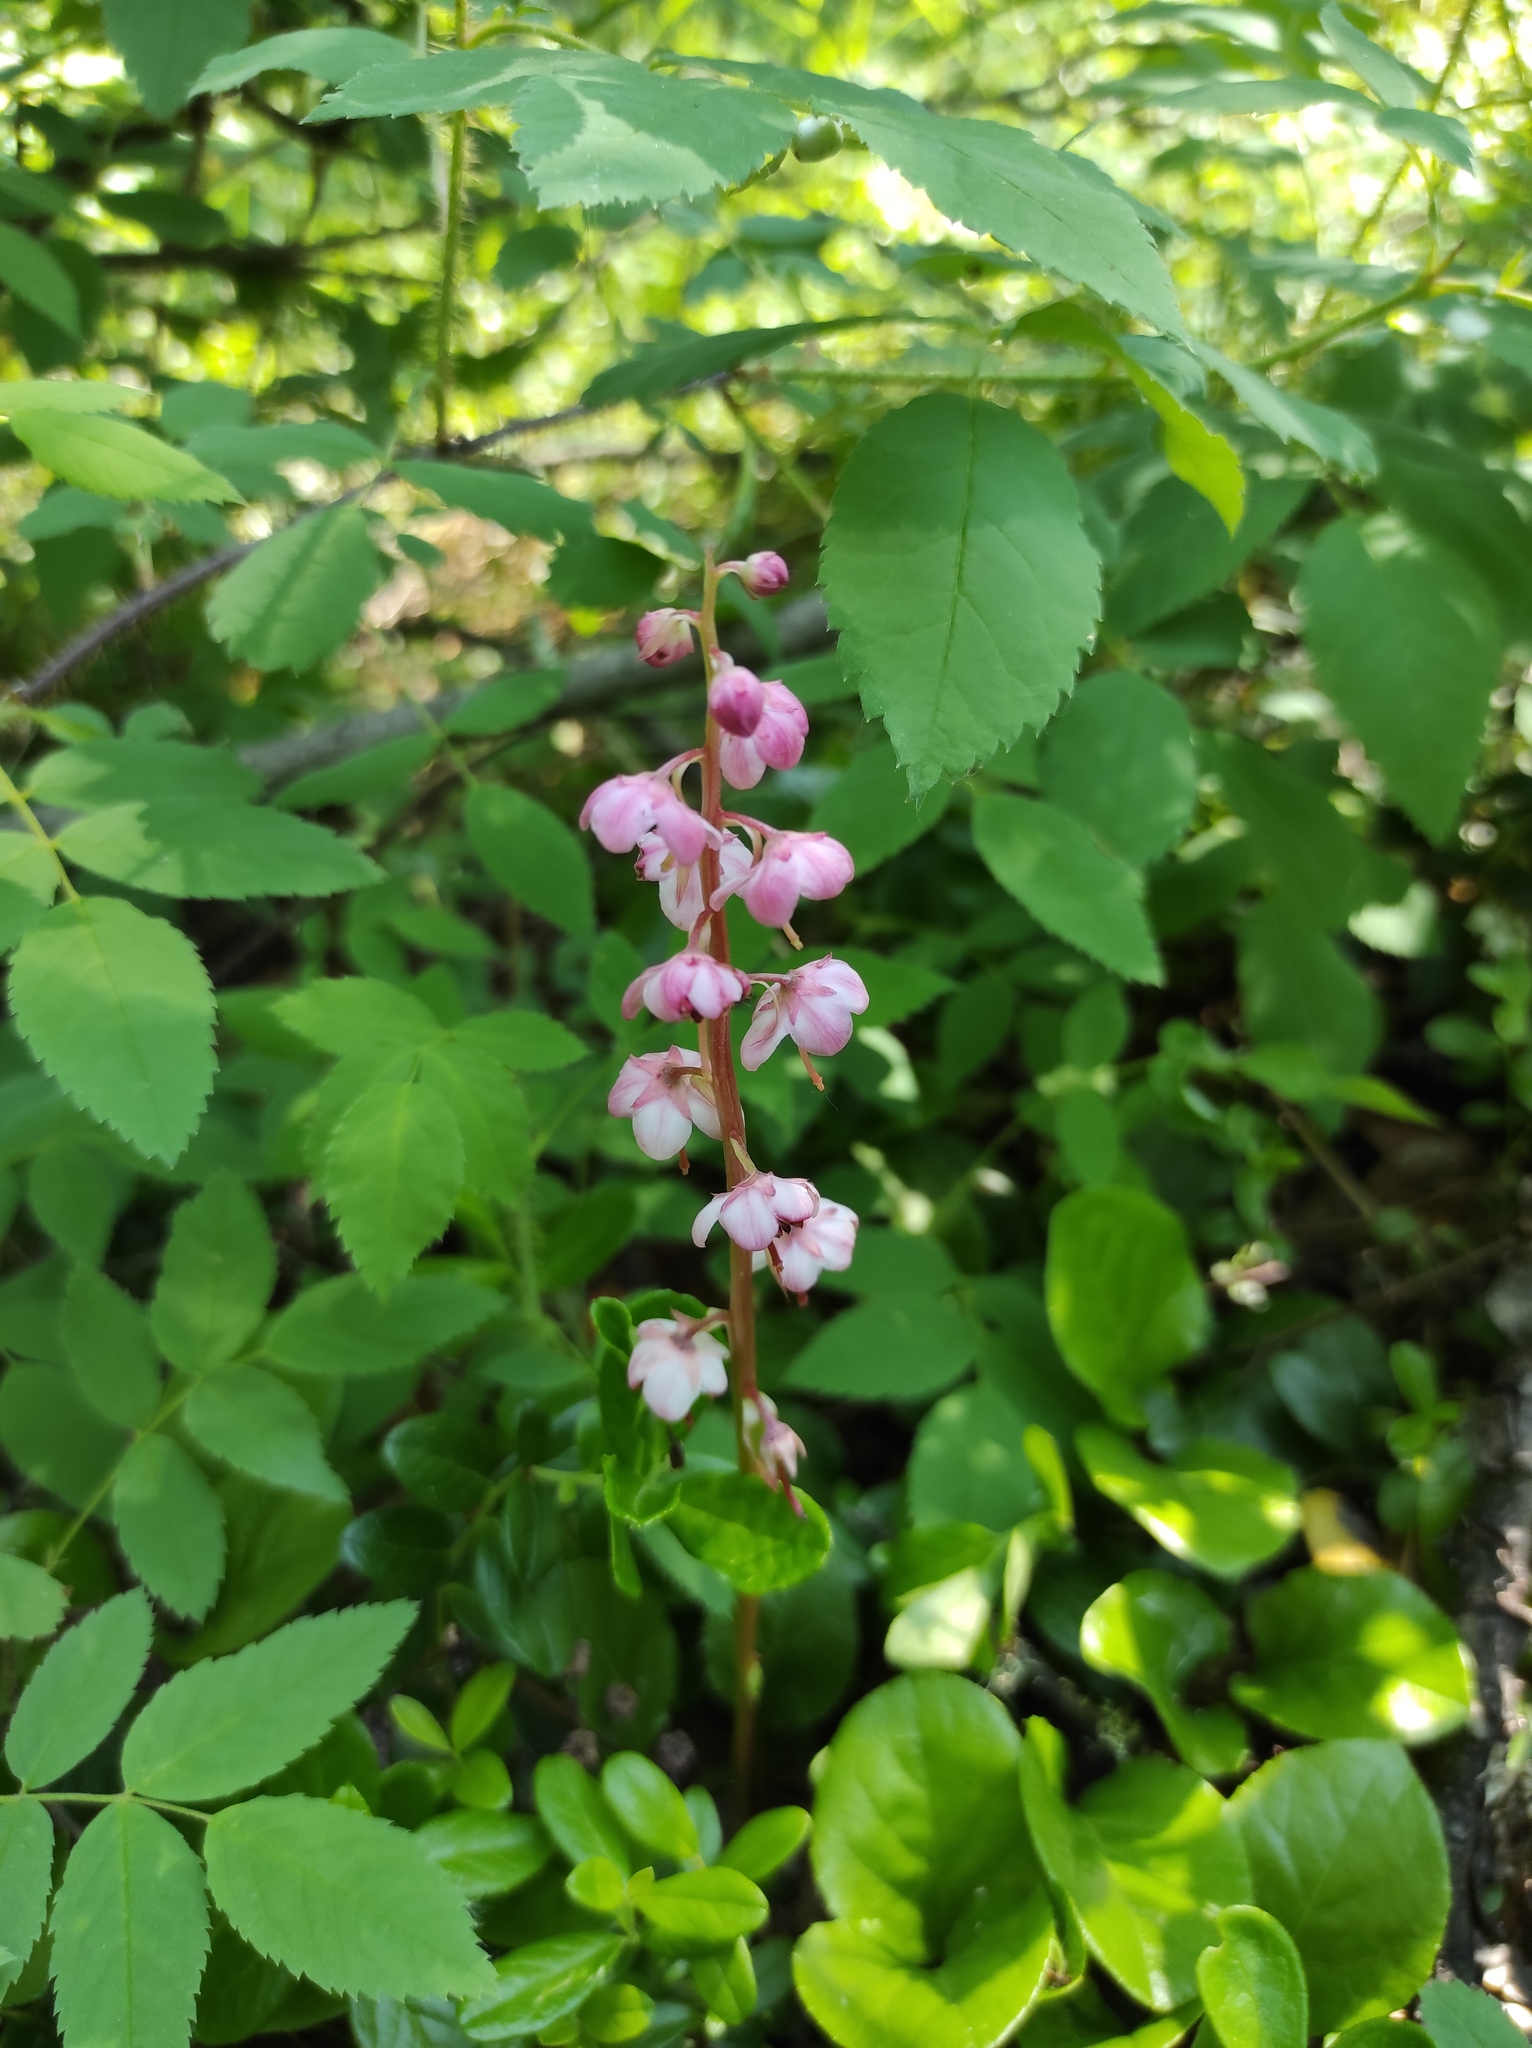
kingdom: Plantae
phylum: Tracheophyta
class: Magnoliopsida
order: Ericales
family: Ericaceae
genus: Pyrola
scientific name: Pyrola asarifolia
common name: Bog wintergreen
